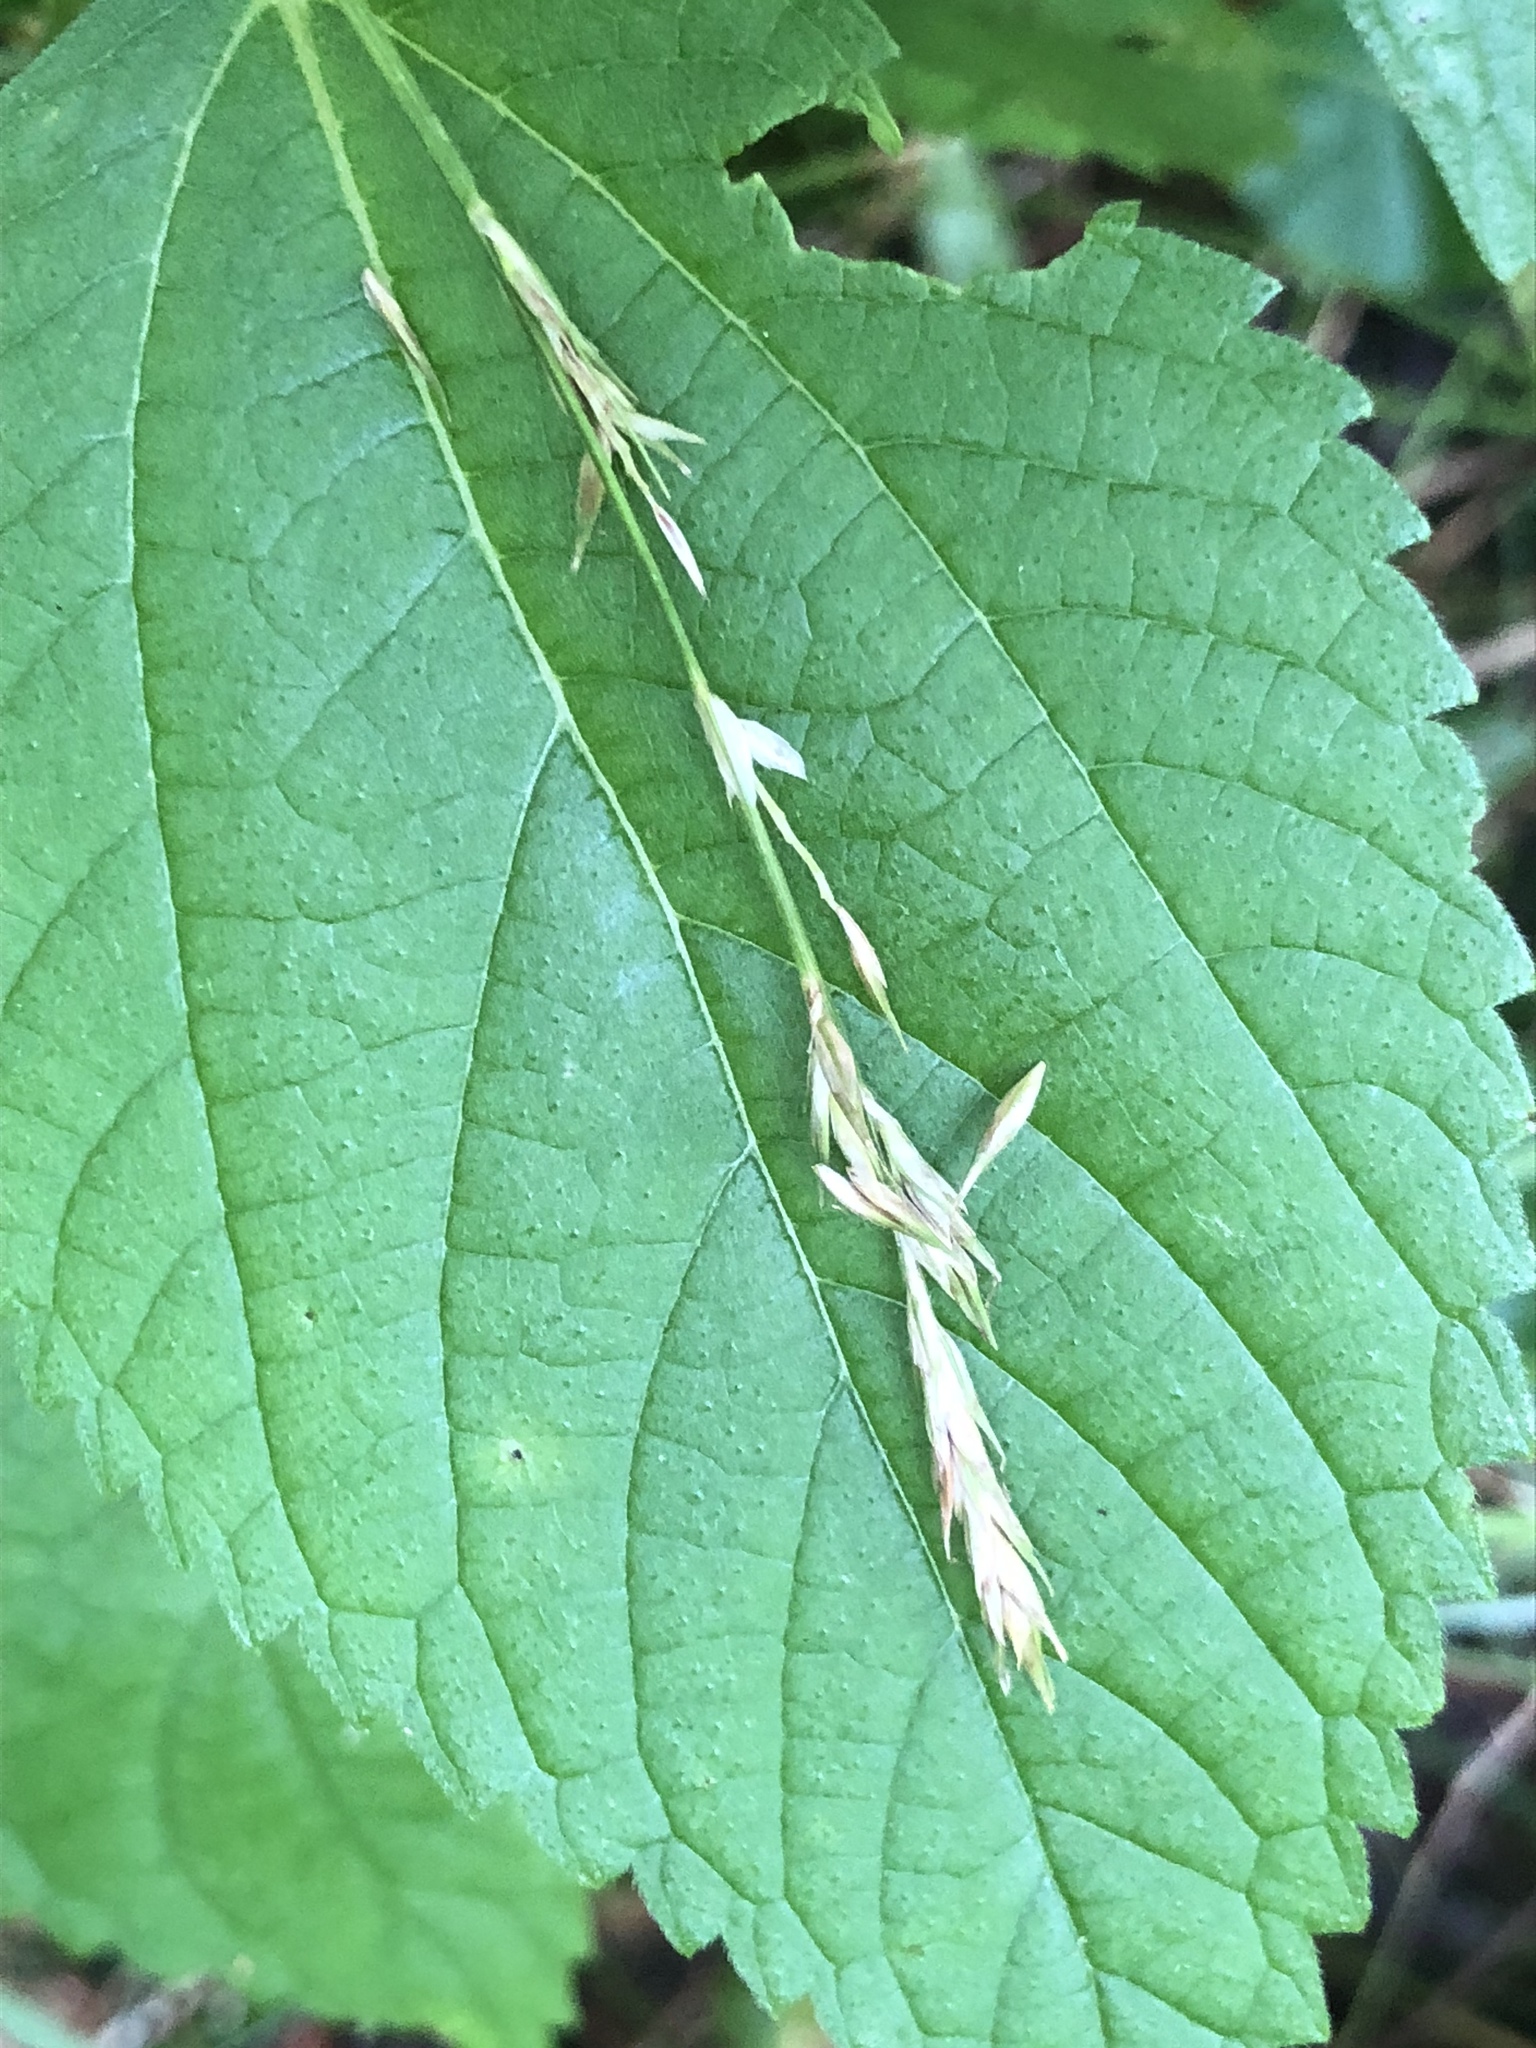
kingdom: Plantae
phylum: Tracheophyta
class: Liliopsida
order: Poales
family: Cyperaceae
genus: Carex
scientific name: Carex bromoides
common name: Brome hummock sedge
